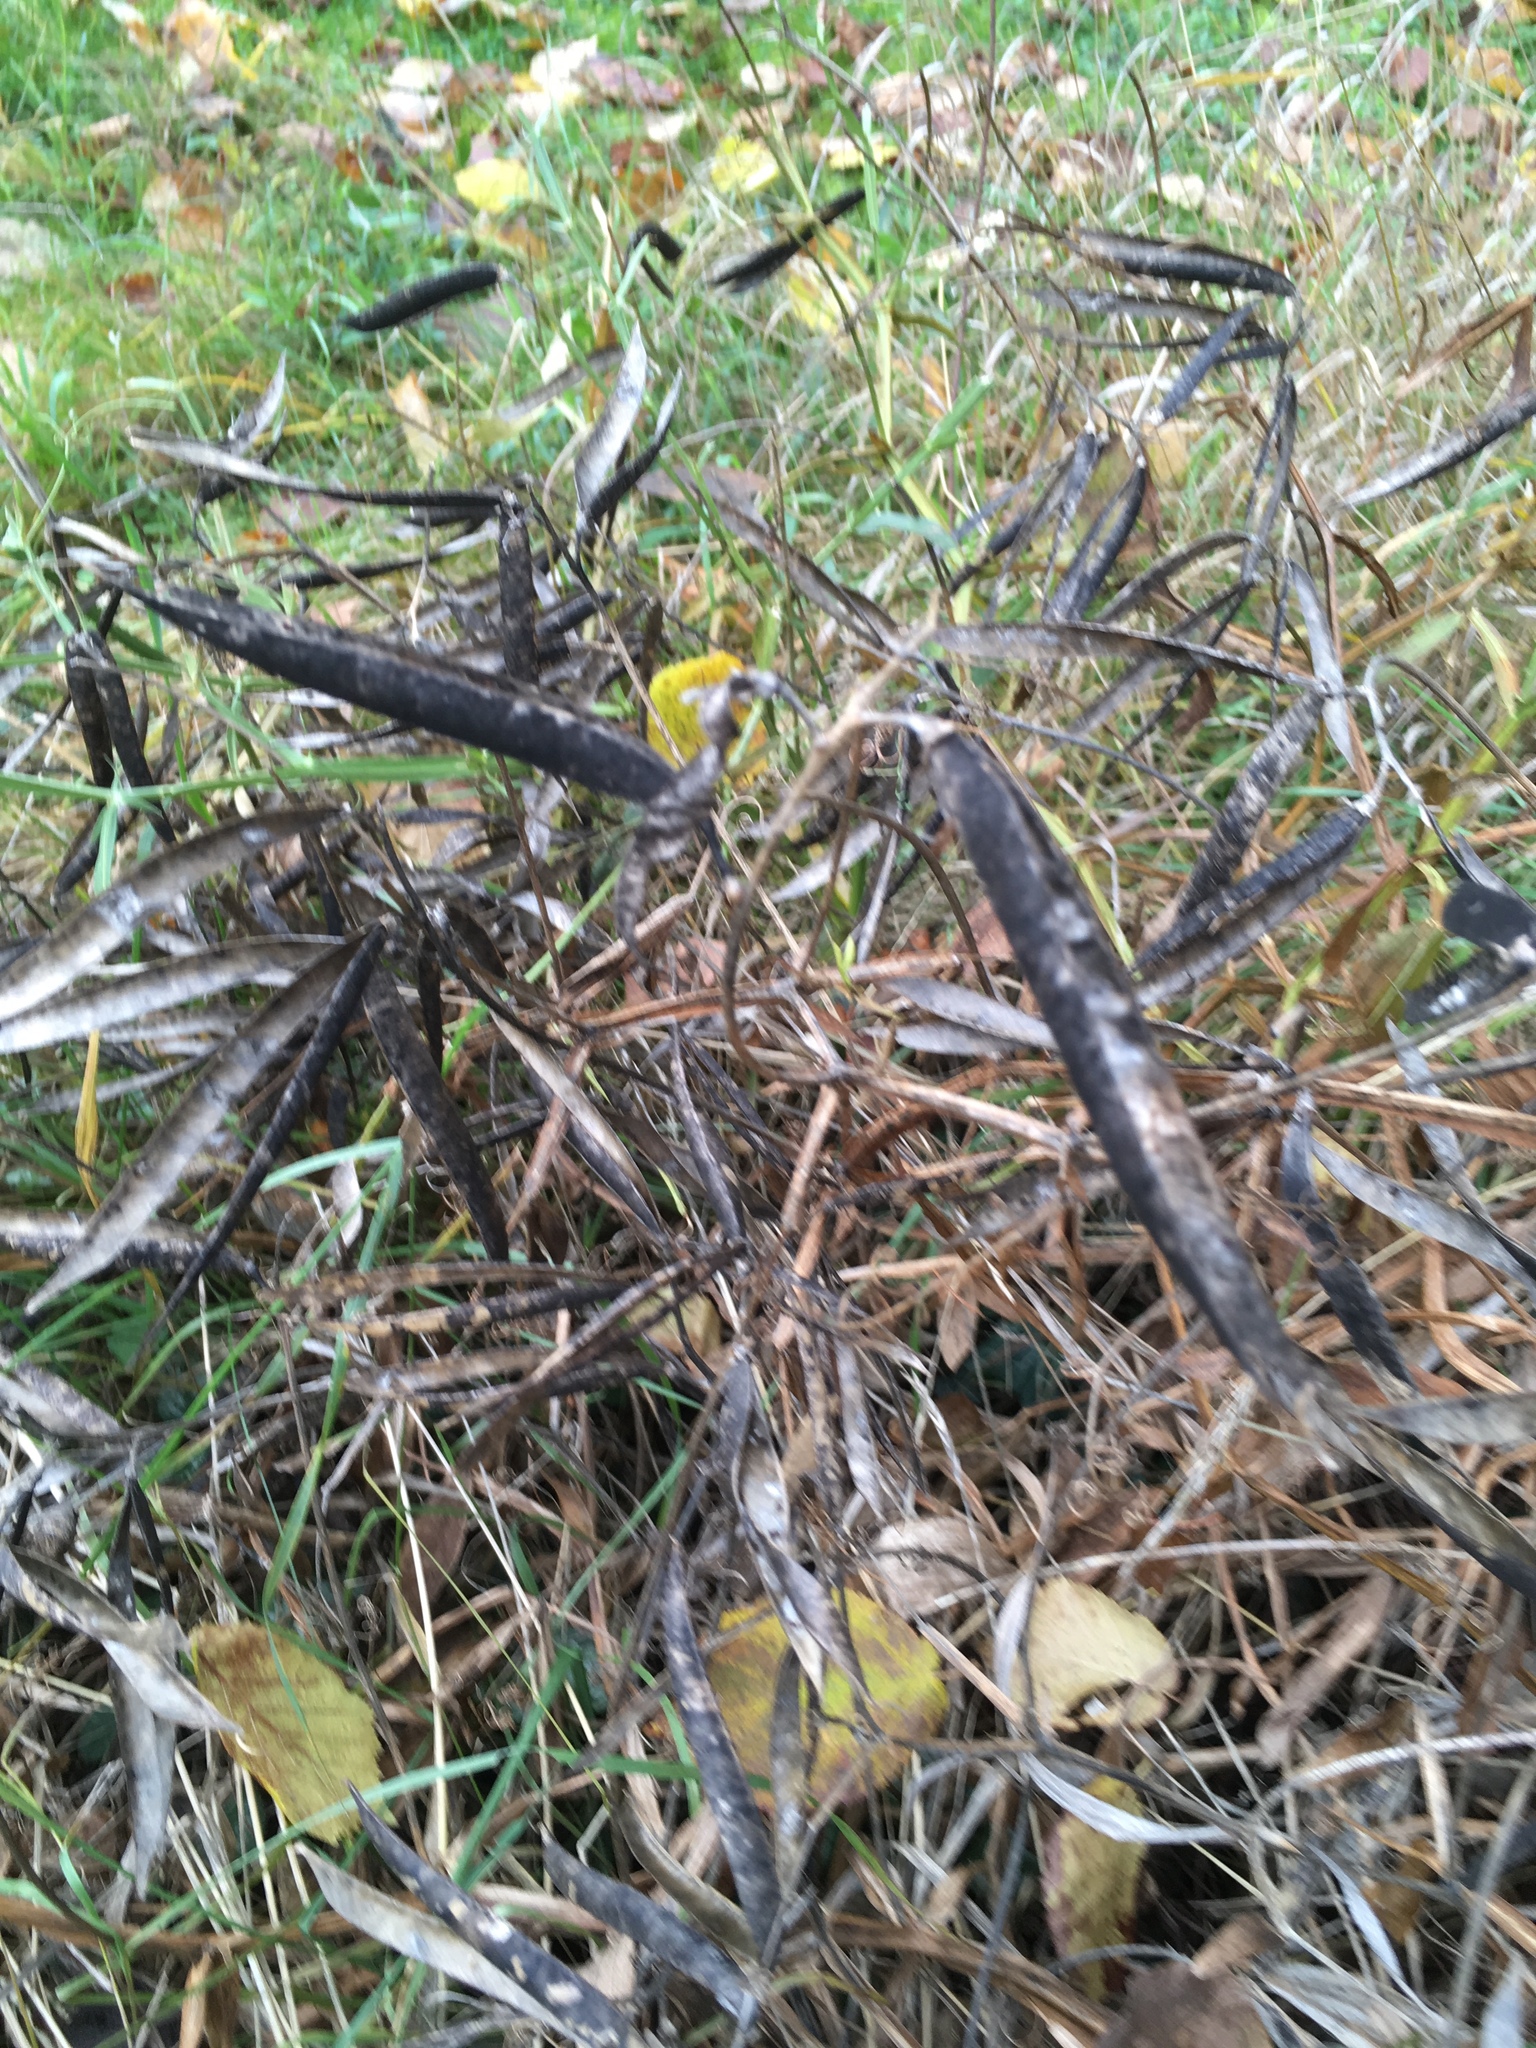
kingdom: Plantae
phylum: Tracheophyta
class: Magnoliopsida
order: Fabales
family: Fabaceae
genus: Lathyrus
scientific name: Lathyrus latifolius
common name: Perennial pea
